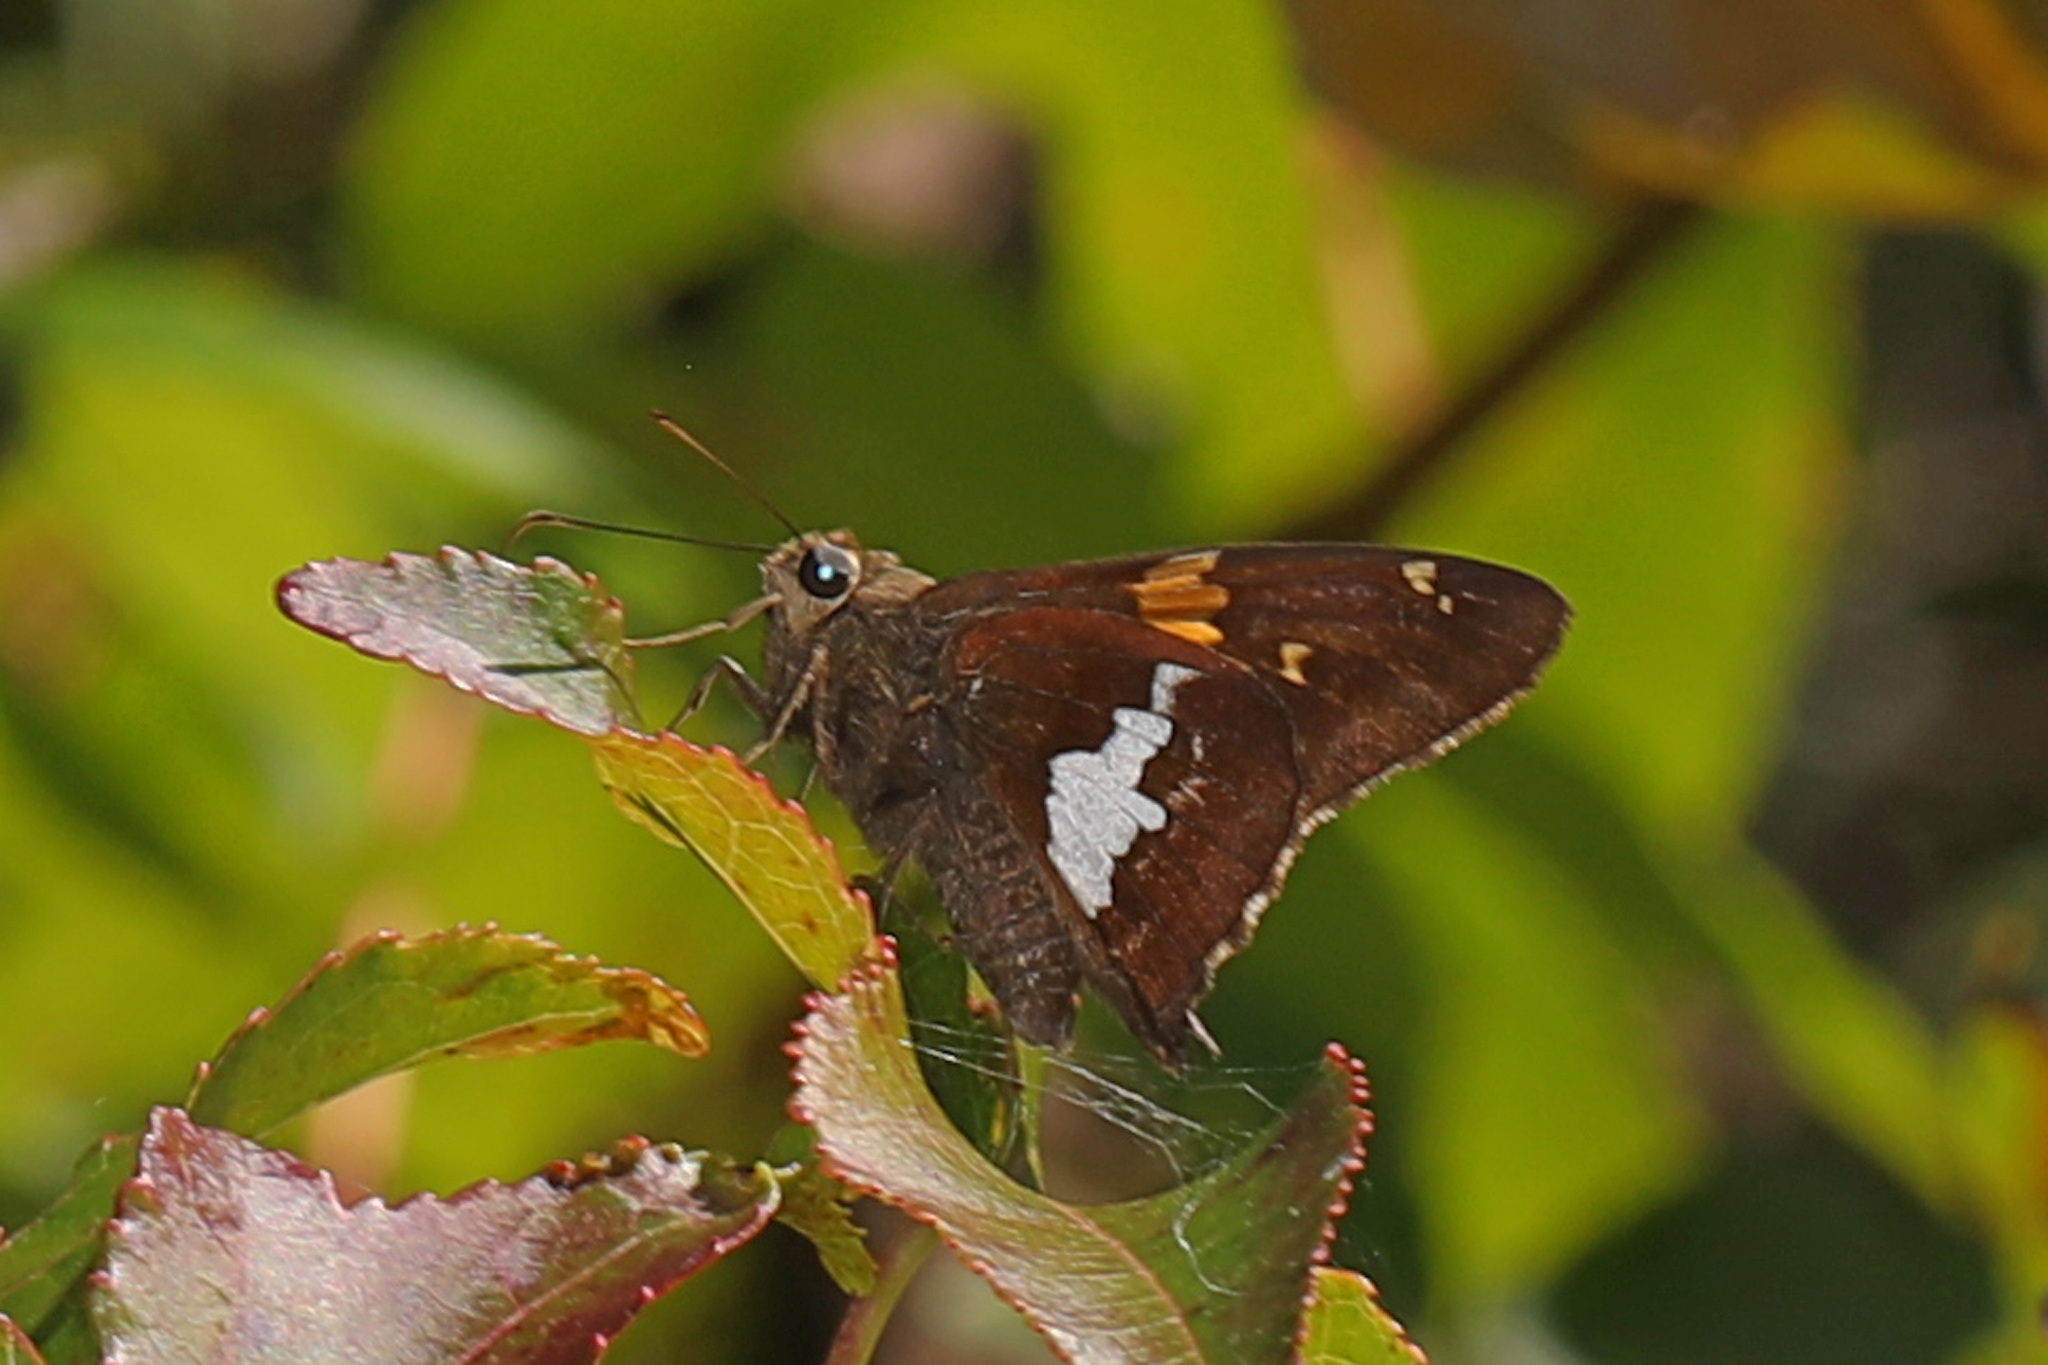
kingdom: Animalia
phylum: Arthropoda
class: Insecta
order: Lepidoptera
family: Hesperiidae
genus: Epargyreus
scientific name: Epargyreus clarus
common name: Silver-spotted skipper
